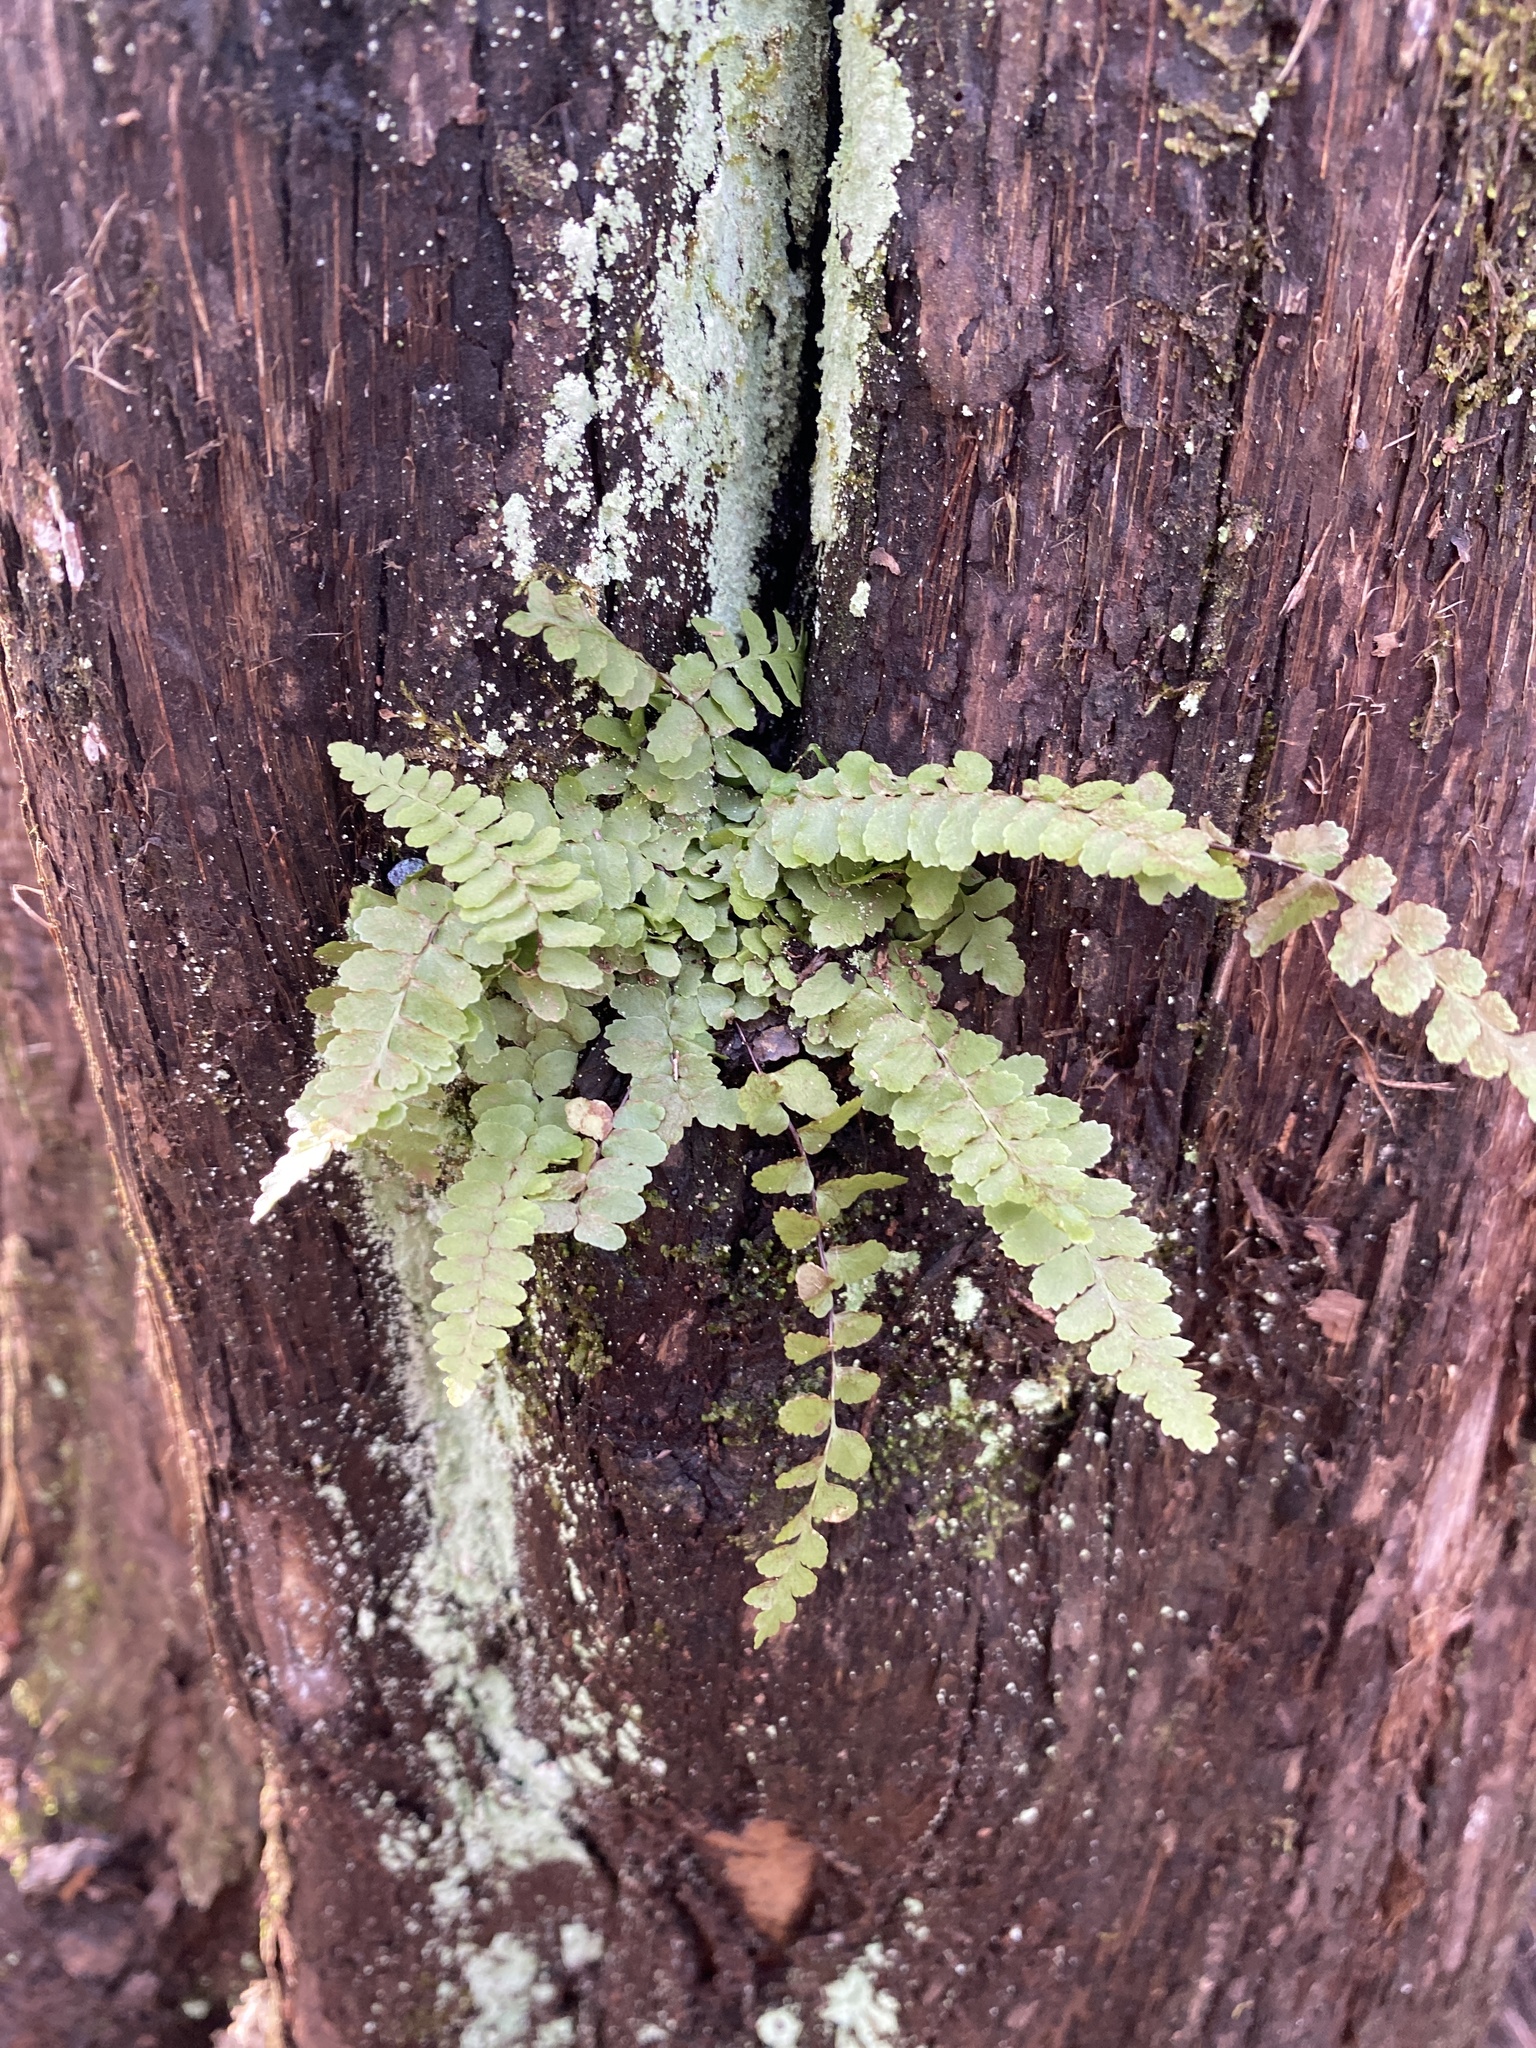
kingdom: Plantae
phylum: Tracheophyta
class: Polypodiopsida
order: Polypodiales
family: Aspleniaceae
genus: Asplenium
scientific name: Asplenium platyneuron
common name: Ebony spleenwort
